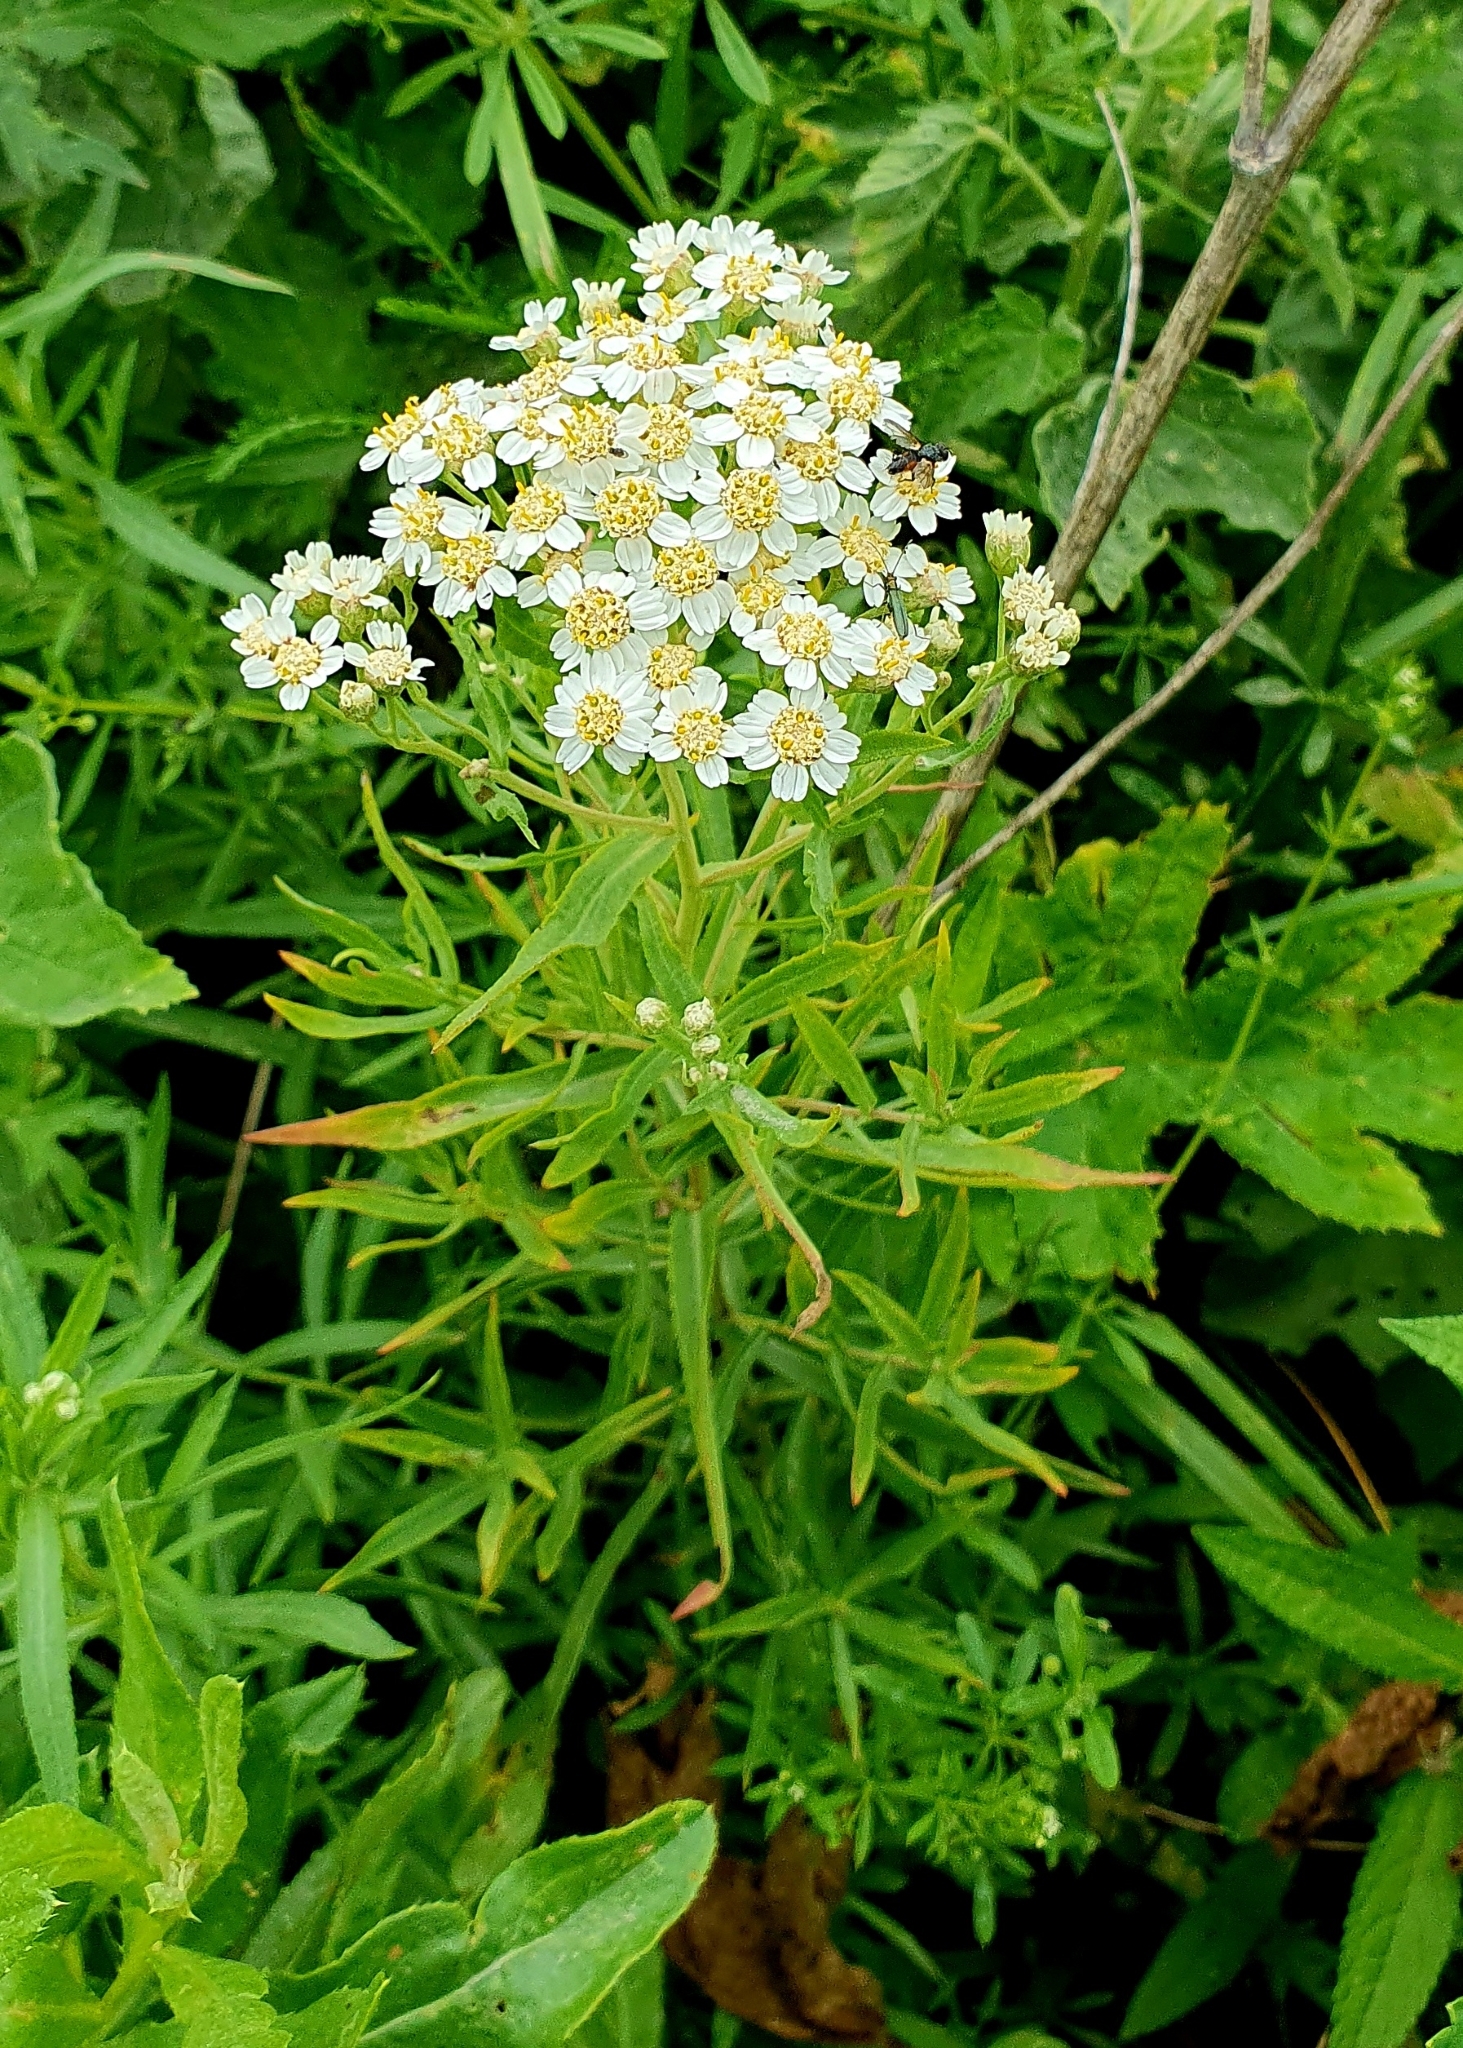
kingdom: Plantae
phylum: Tracheophyta
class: Magnoliopsida
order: Asterales
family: Asteraceae
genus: Achillea
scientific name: Achillea salicifolia
